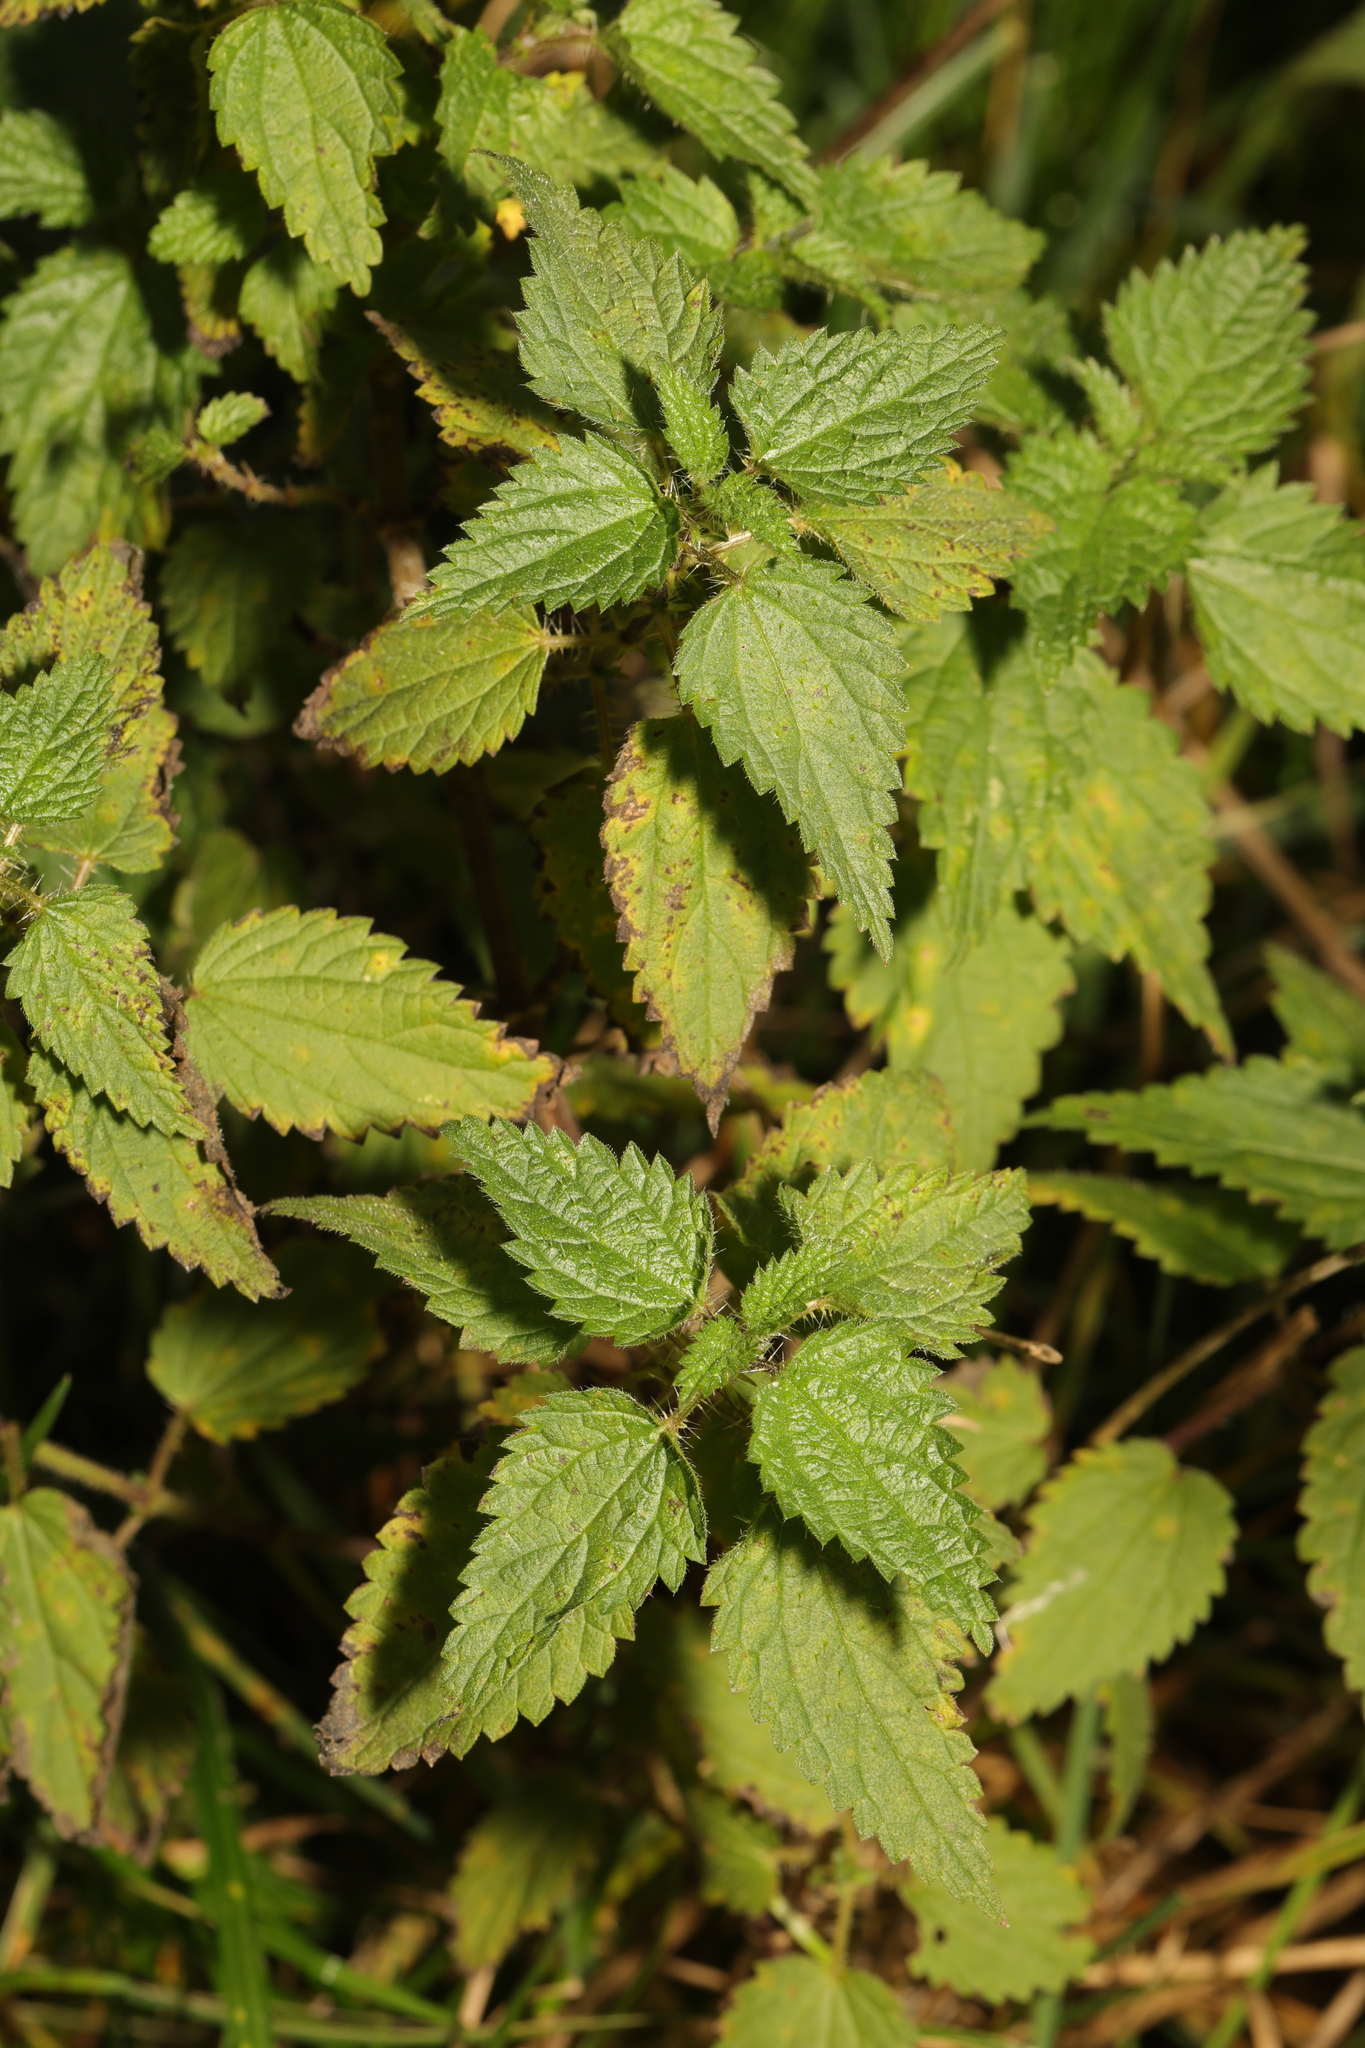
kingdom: Plantae
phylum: Tracheophyta
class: Magnoliopsida
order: Rosales
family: Urticaceae
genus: Urtica
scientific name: Urtica dioica
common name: Common nettle
